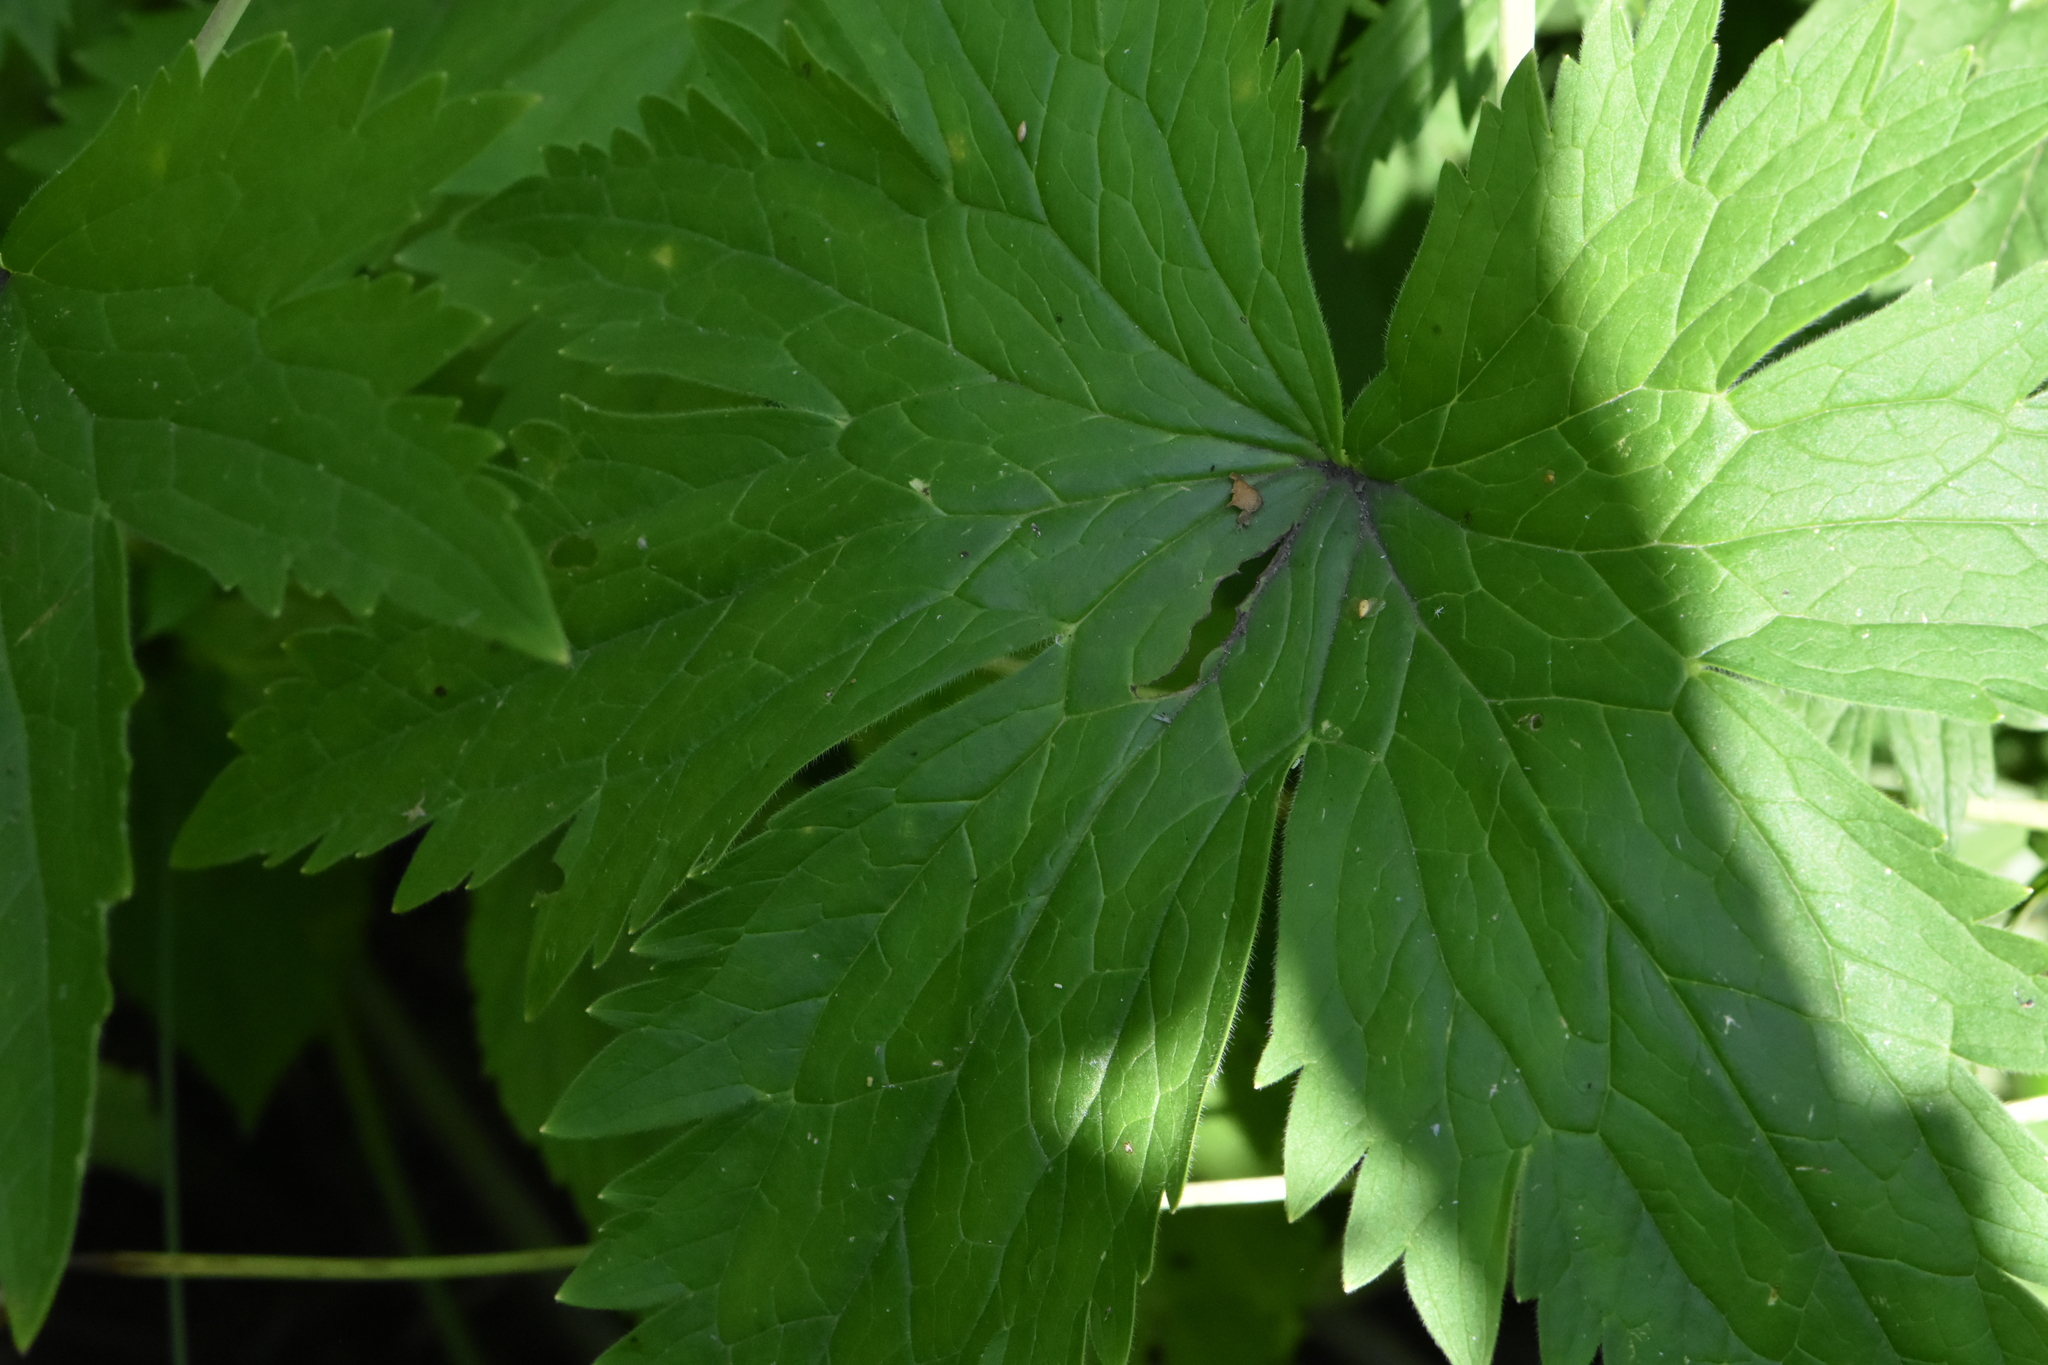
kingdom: Plantae
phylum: Tracheophyta
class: Magnoliopsida
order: Ranunculales
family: Ranunculaceae
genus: Delphinium
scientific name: Delphinium elatum
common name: Candle larkspur
